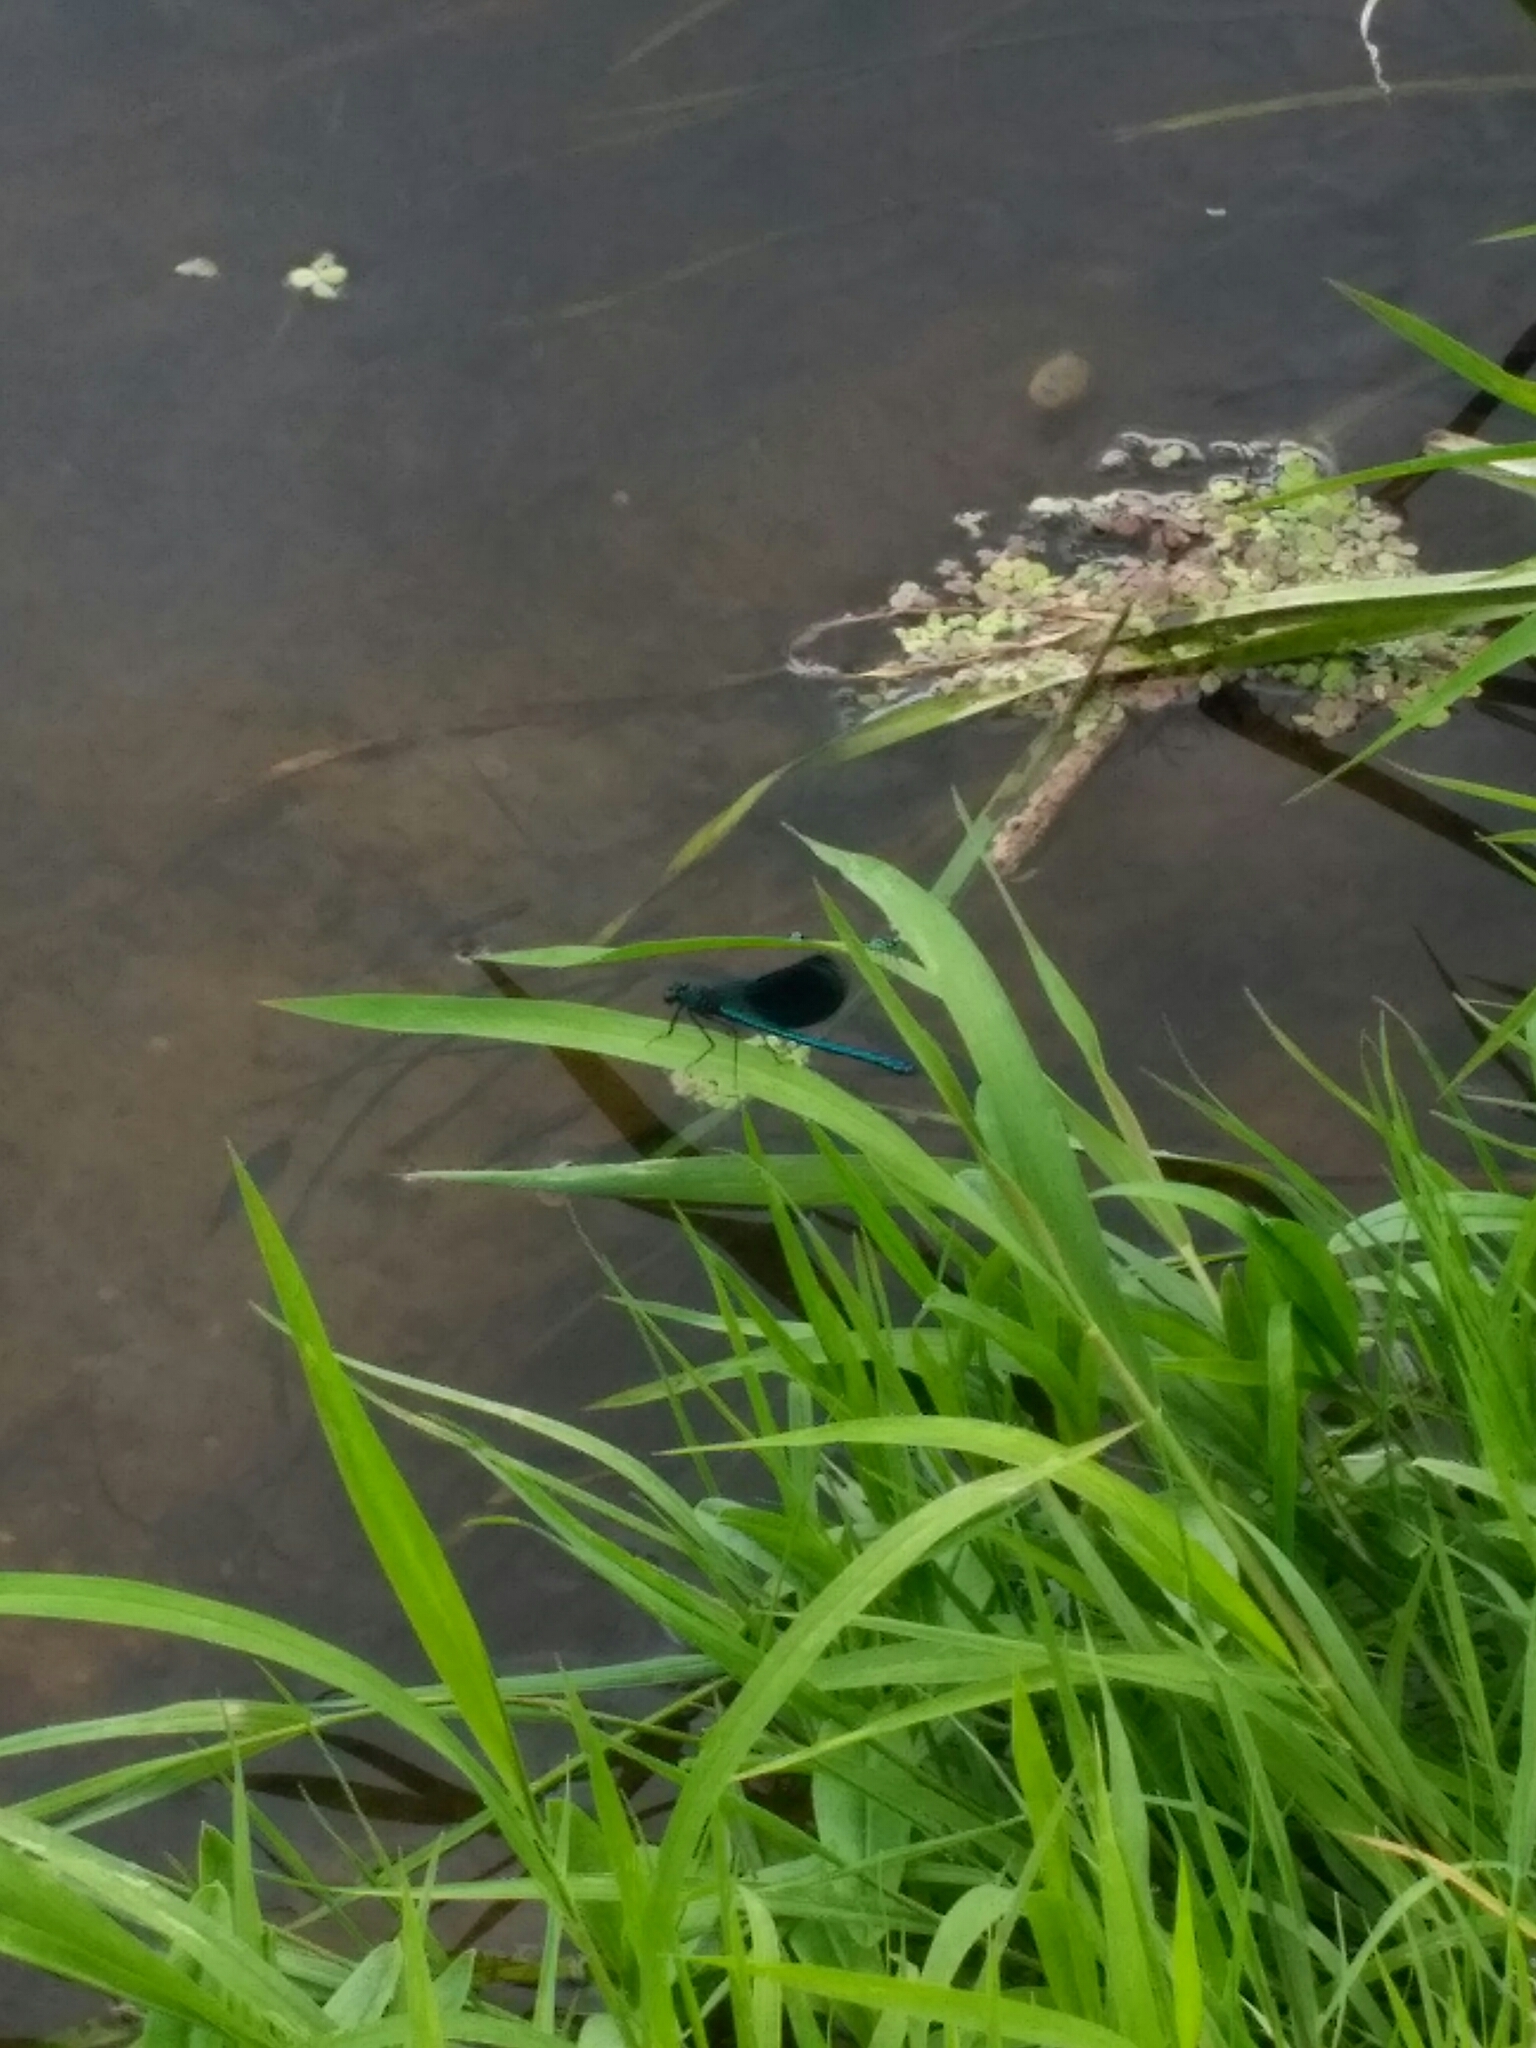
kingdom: Animalia
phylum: Arthropoda
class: Insecta
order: Odonata
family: Calopterygidae
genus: Calopteryx
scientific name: Calopteryx splendens
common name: Banded demoiselle
